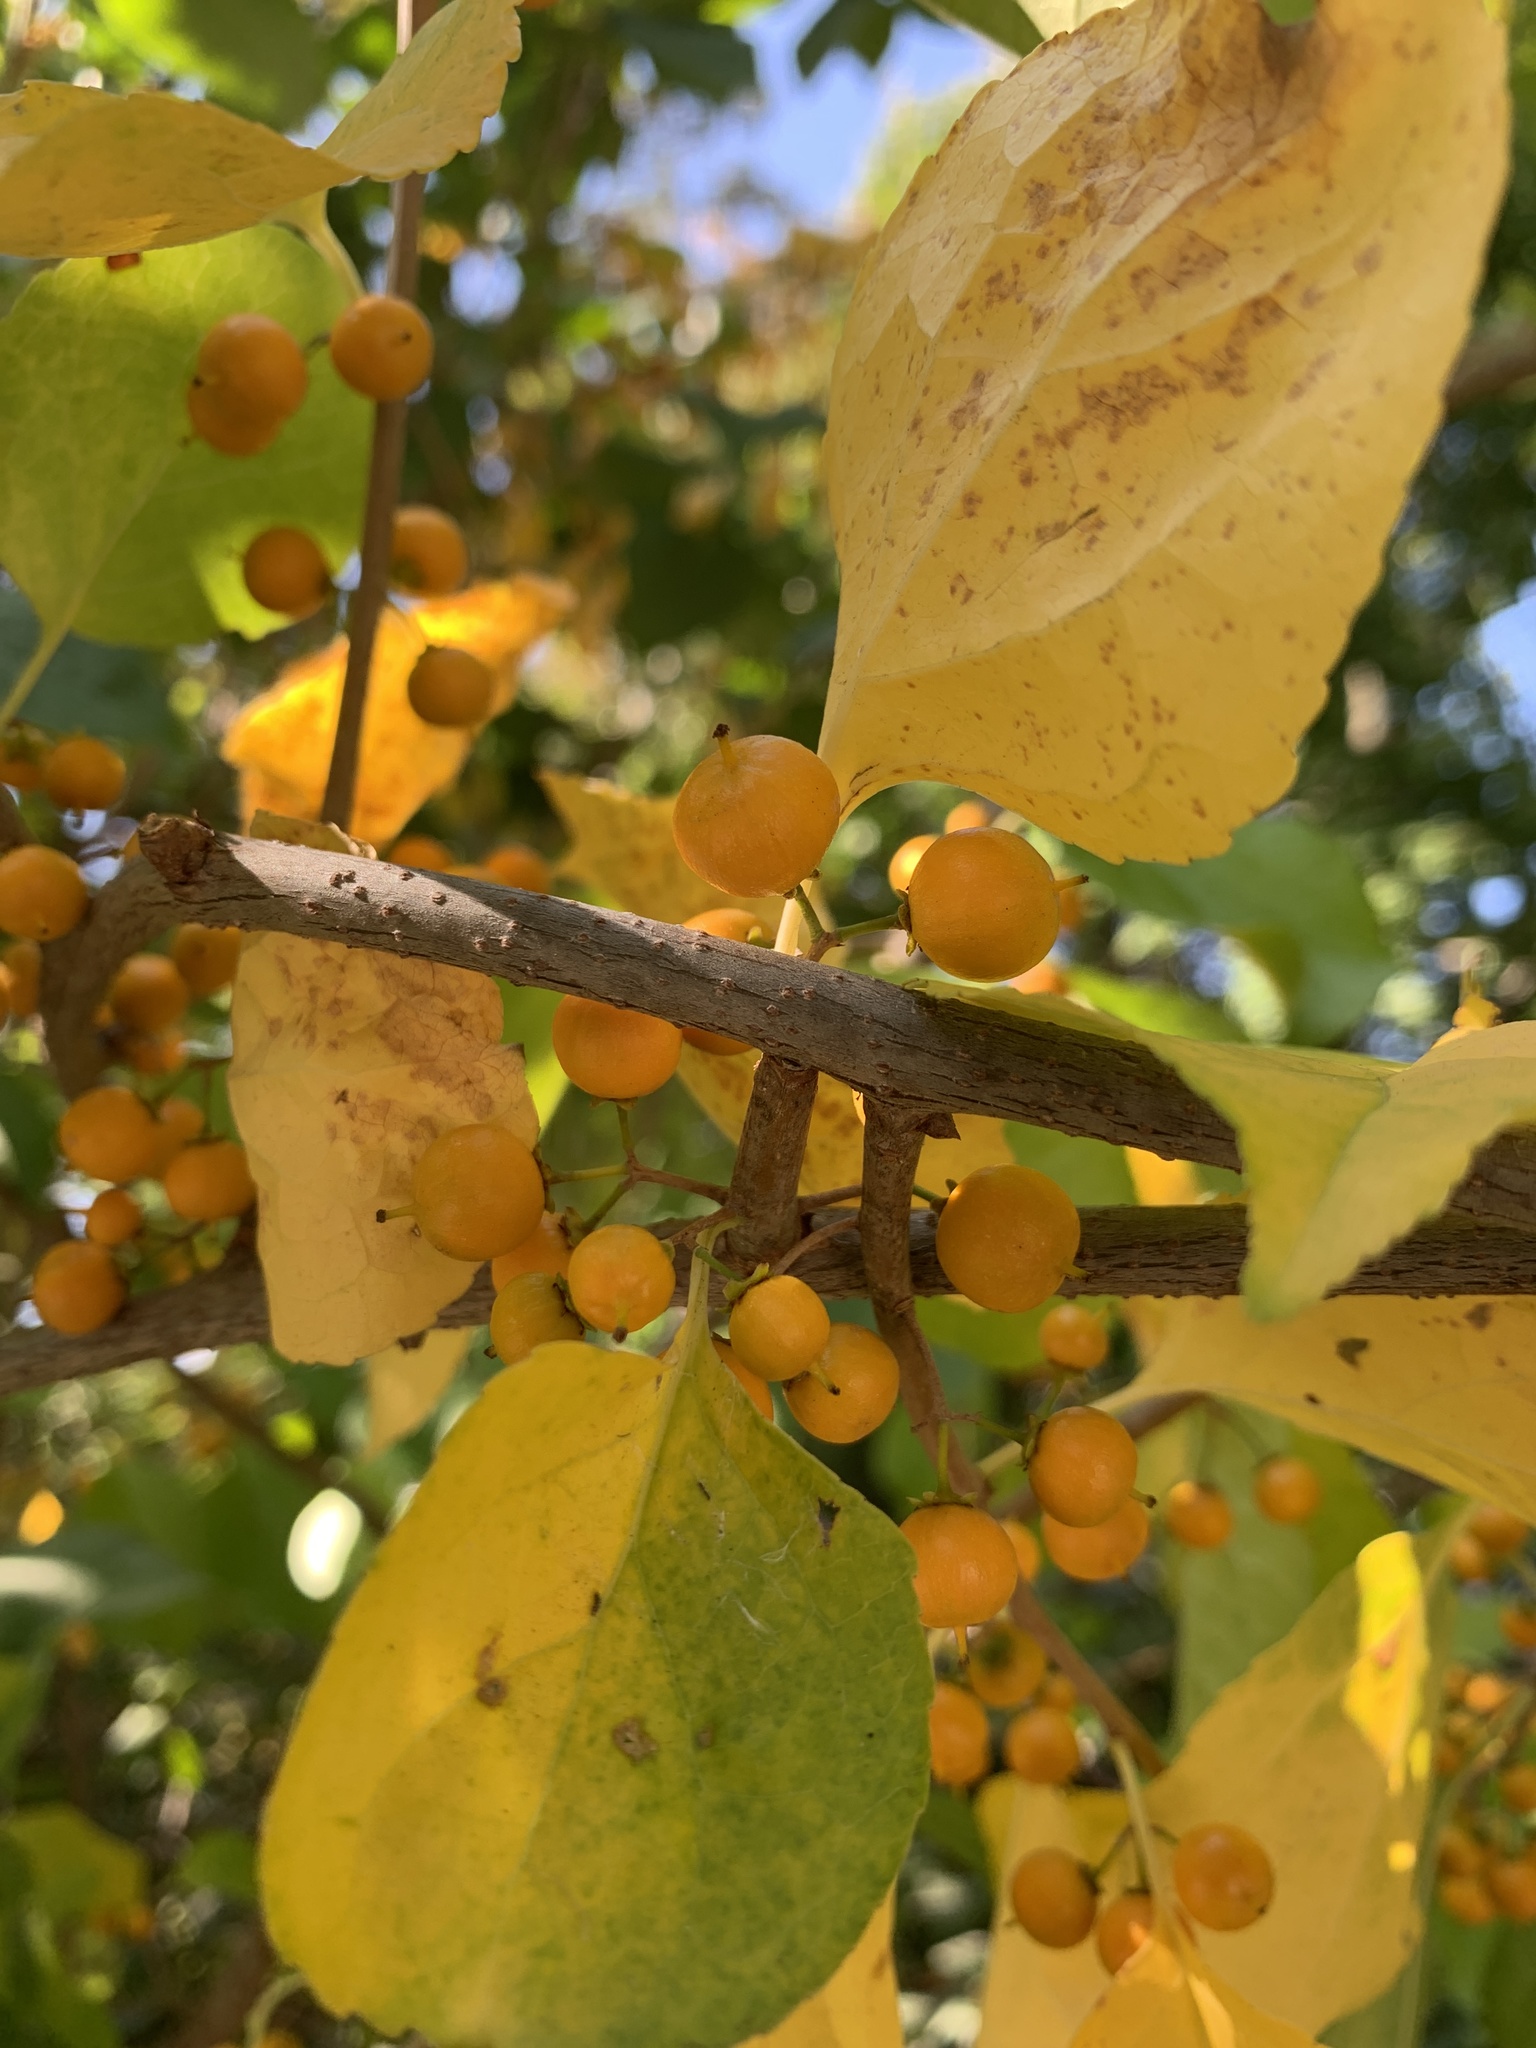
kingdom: Plantae
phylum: Tracheophyta
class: Magnoliopsida
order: Celastrales
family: Celastraceae
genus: Celastrus
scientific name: Celastrus orbiculatus
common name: Oriental bittersweet
